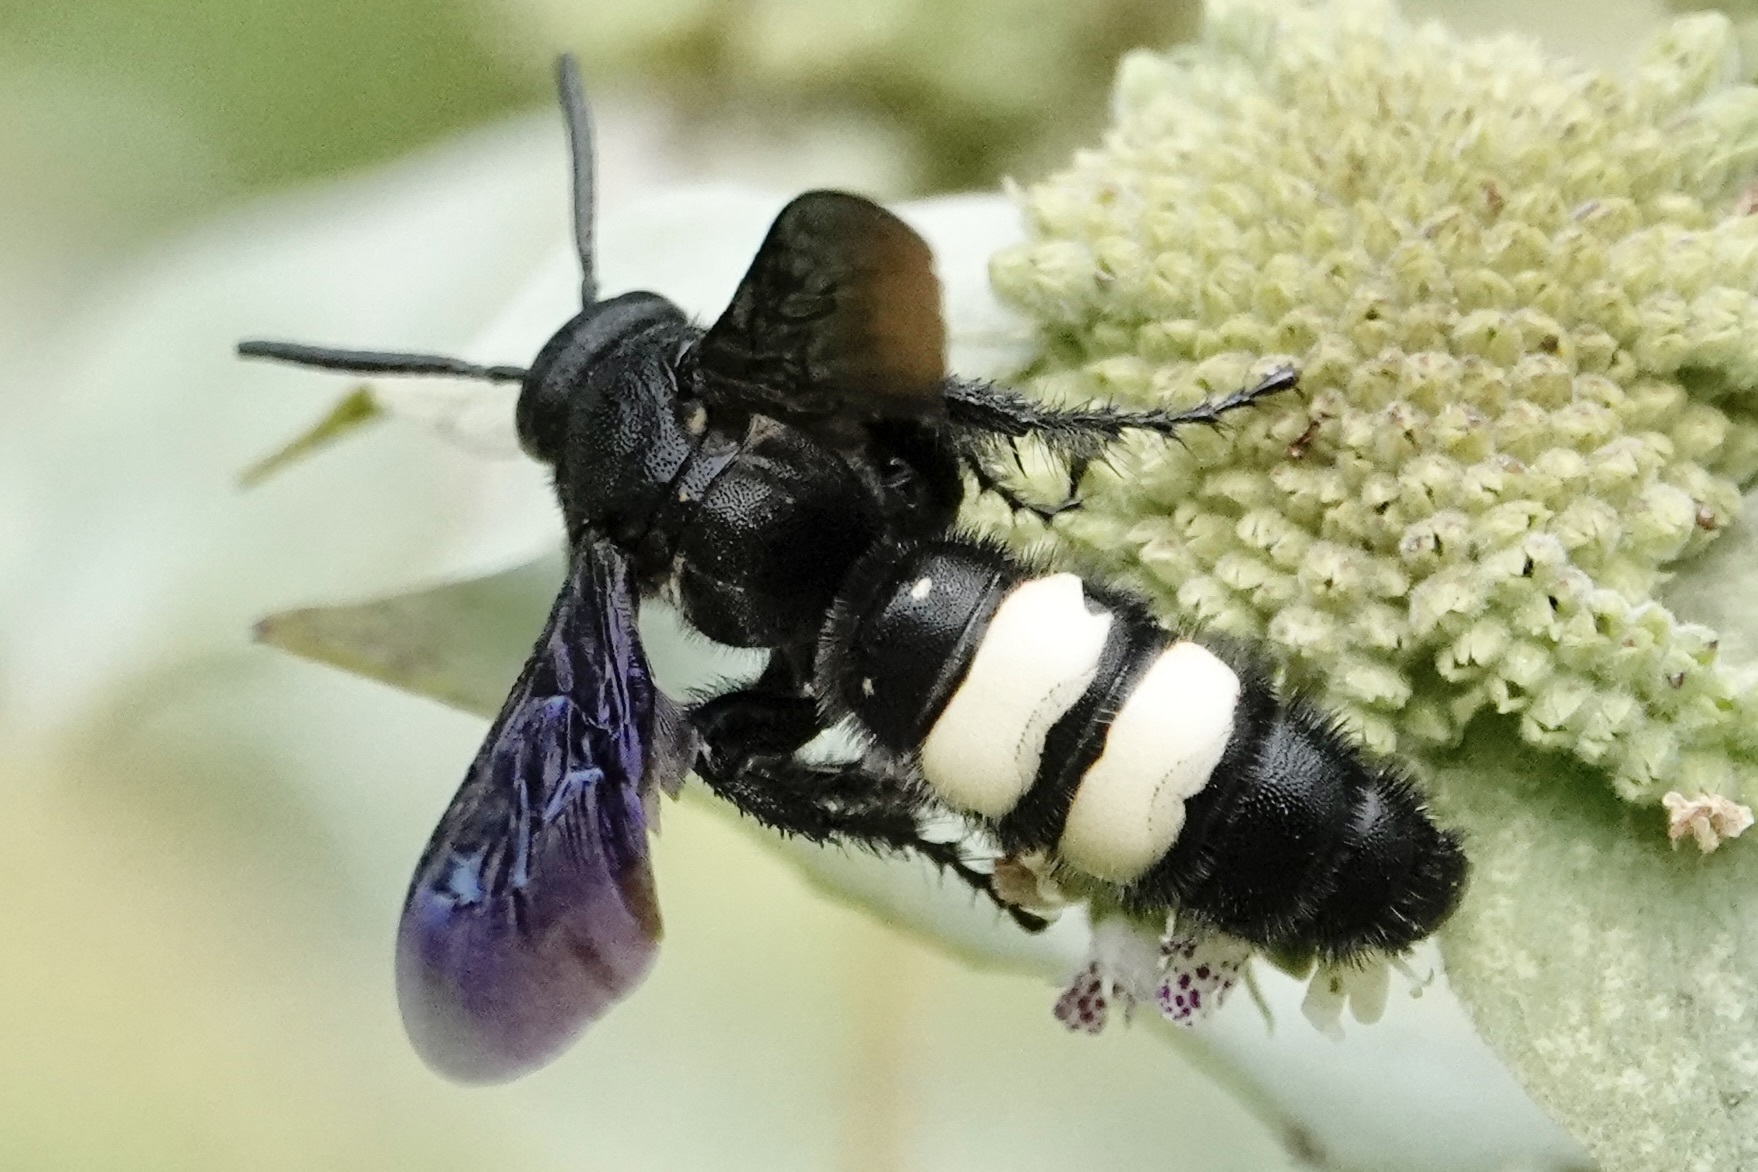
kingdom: Animalia
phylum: Arthropoda
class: Insecta
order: Hymenoptera
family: Scoliidae
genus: Scolia
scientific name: Scolia bicincta
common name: Double-banded scoliid wasp
